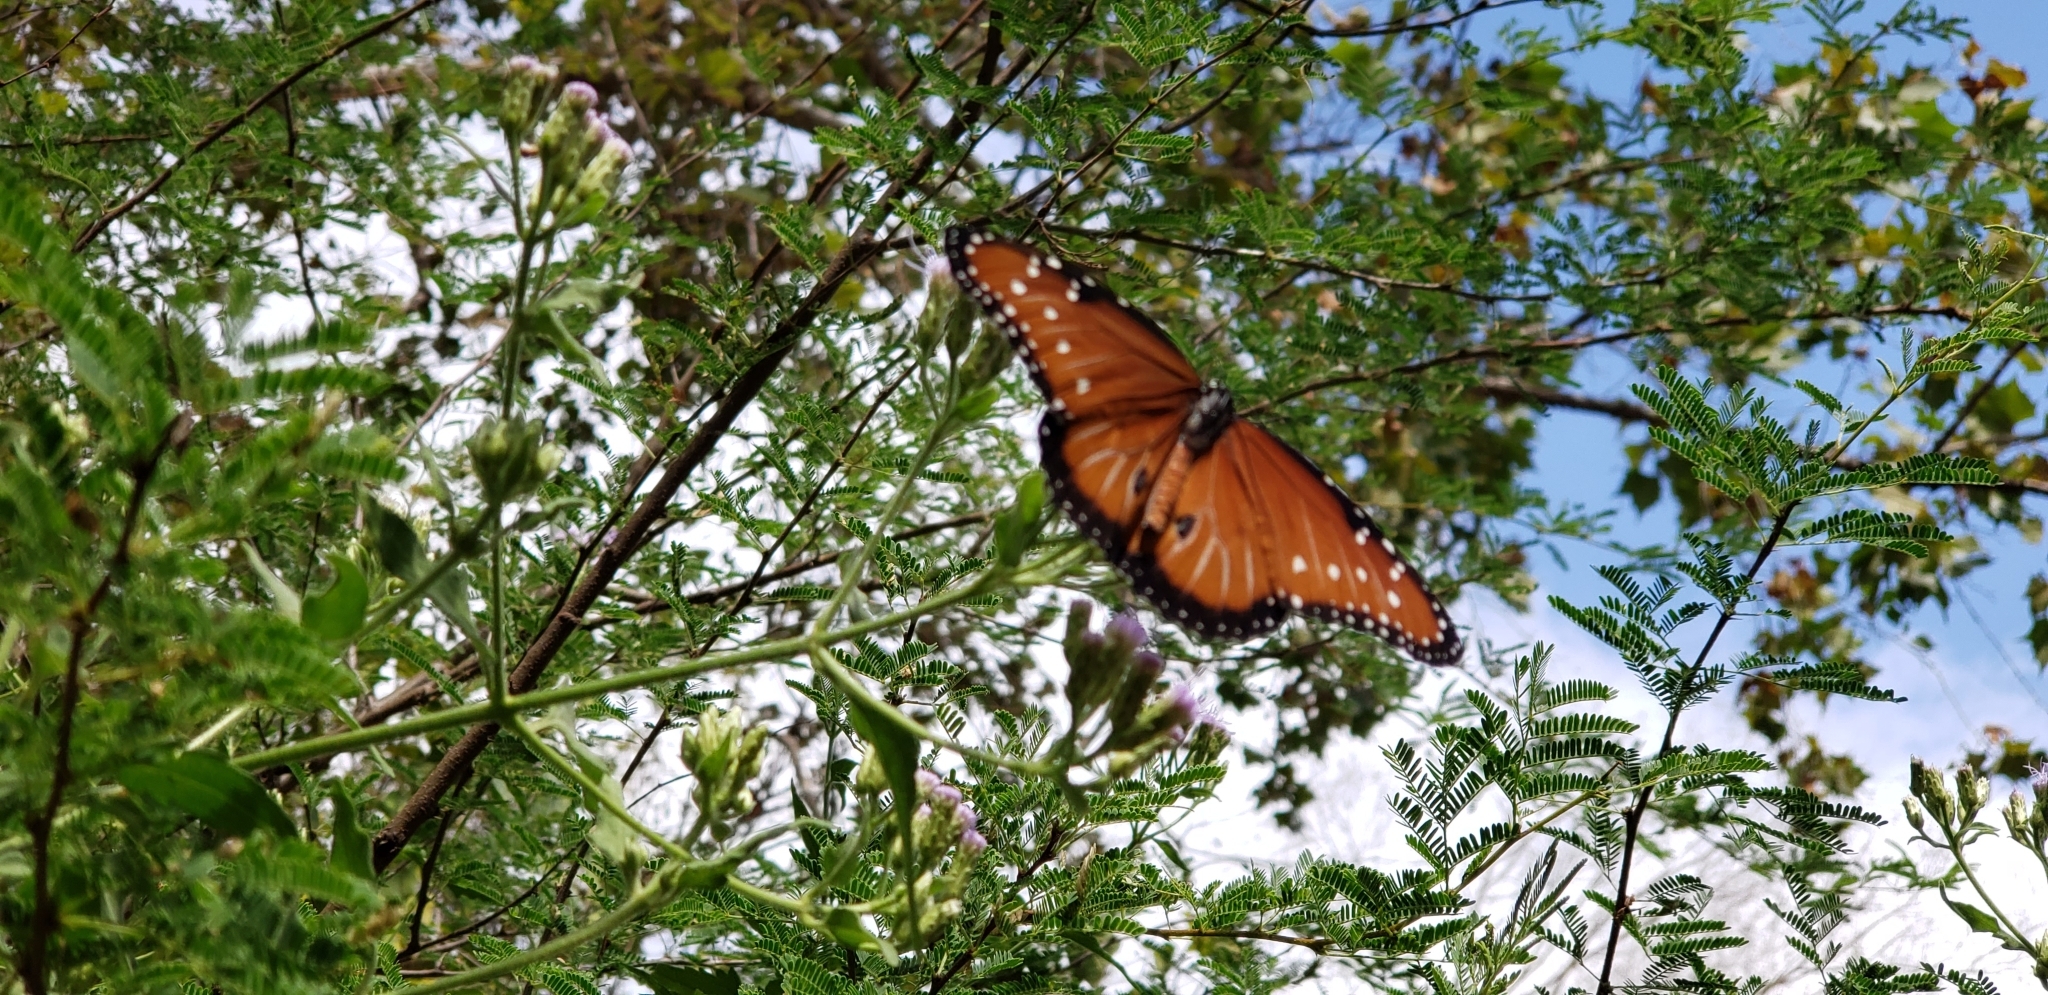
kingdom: Animalia
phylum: Arthropoda
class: Insecta
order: Lepidoptera
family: Nymphalidae
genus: Danaus
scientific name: Danaus gilippus
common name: Queen
